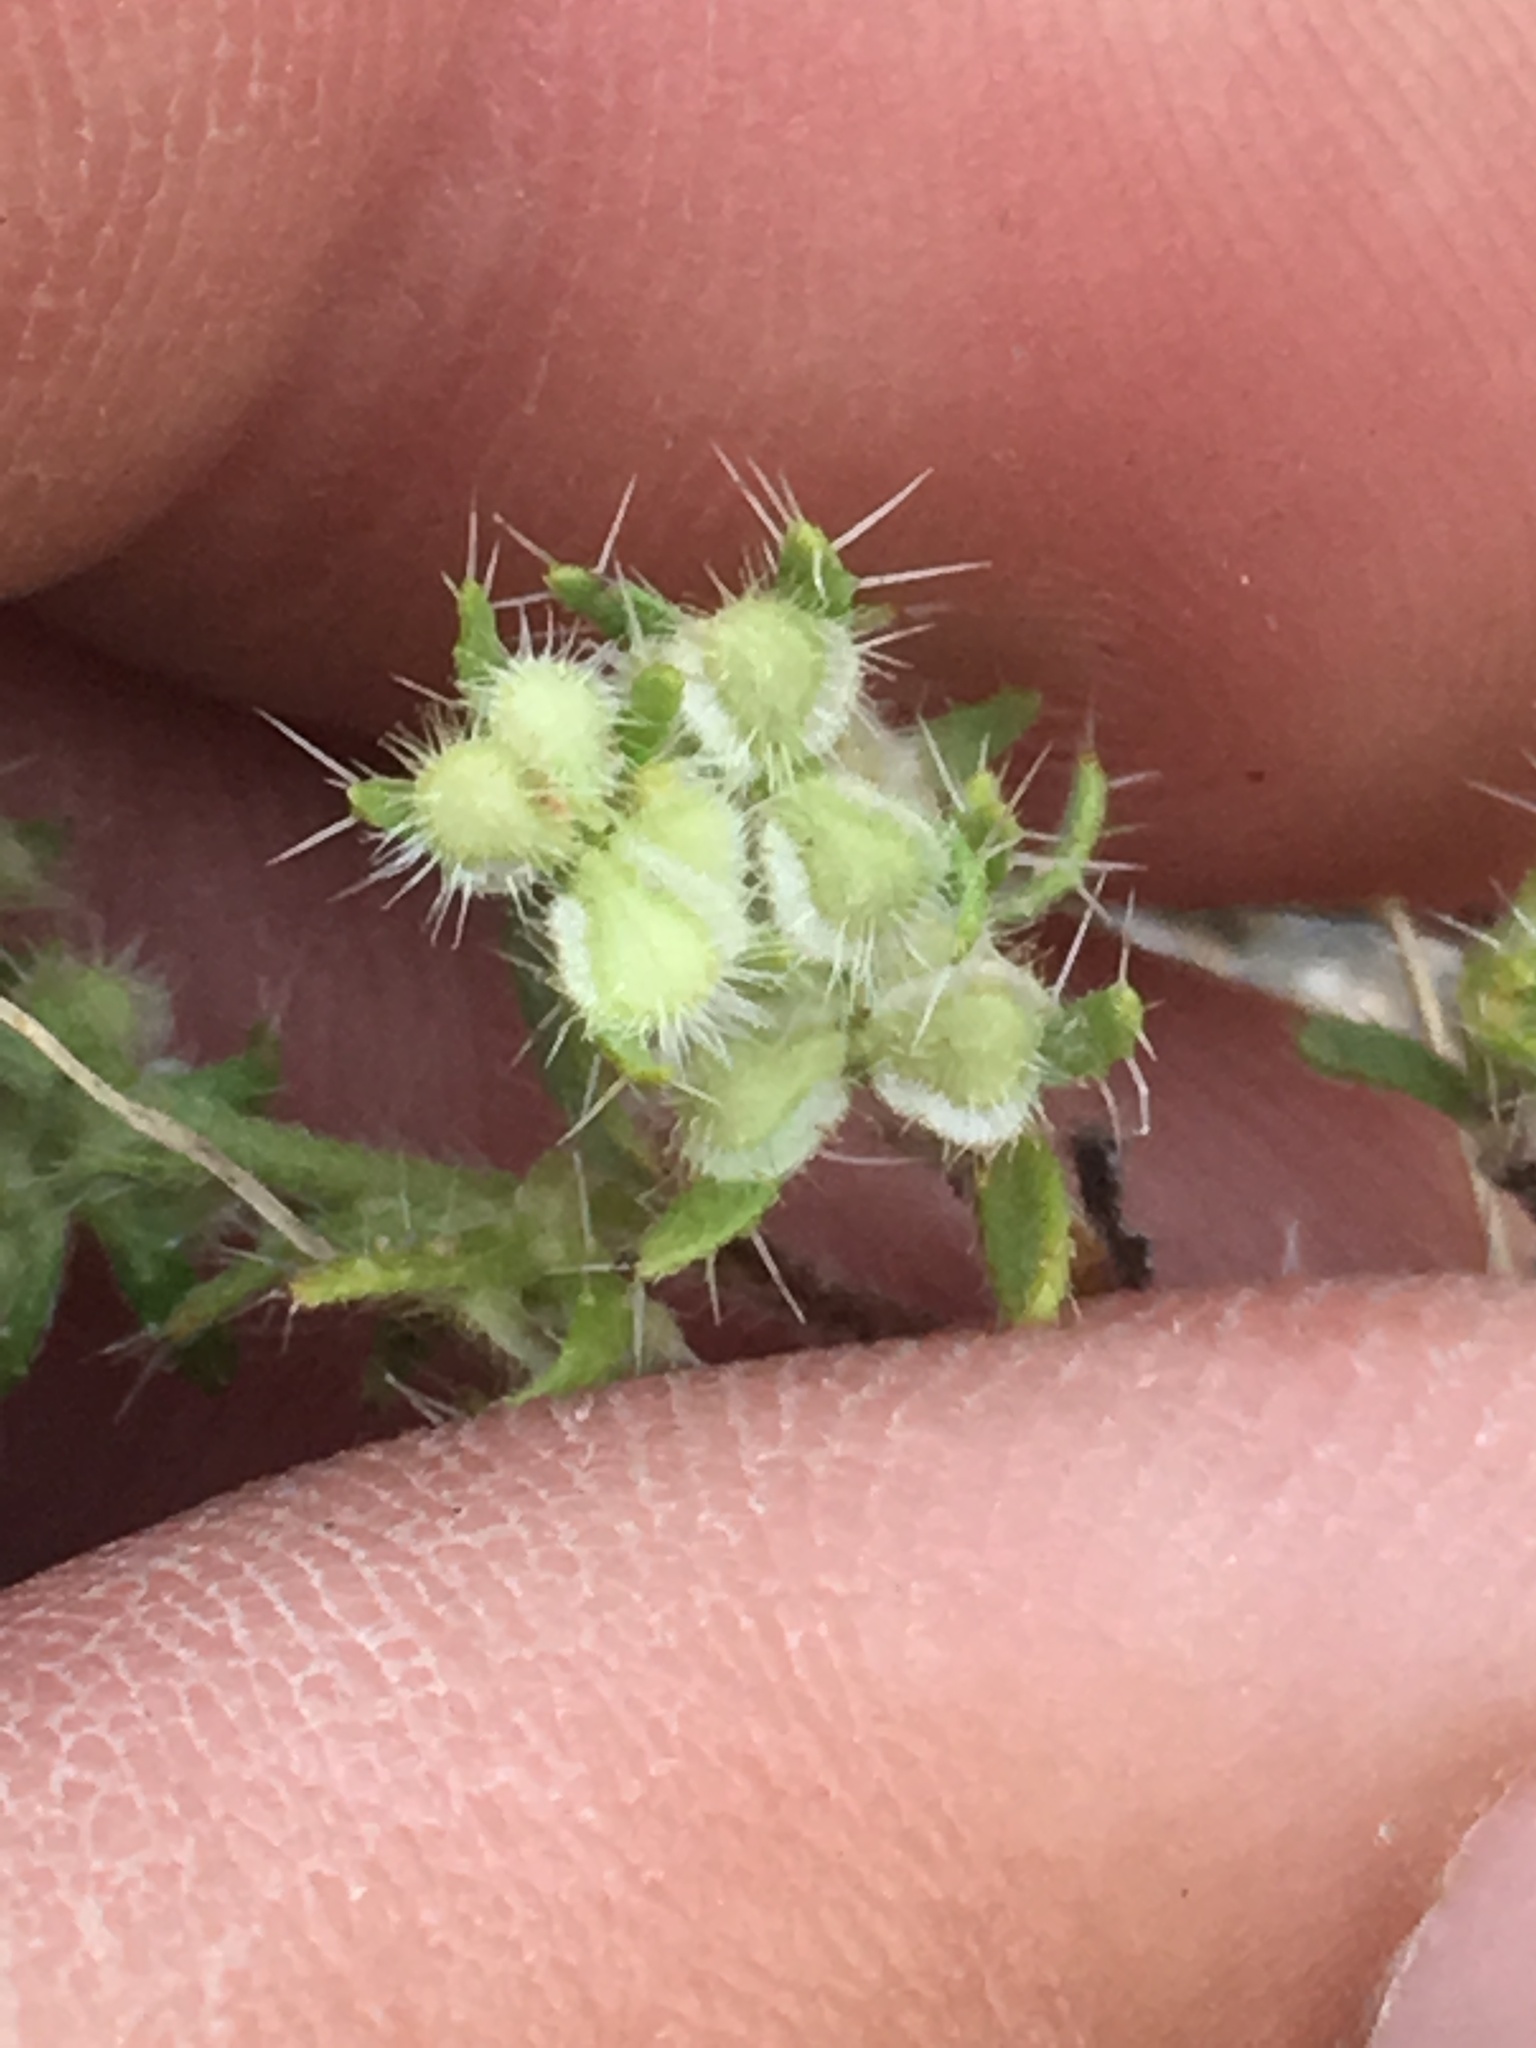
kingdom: Plantae
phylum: Tracheophyta
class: Magnoliopsida
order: Boraginales
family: Boraginaceae
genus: Pectocarya
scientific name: Pectocarya setosa
